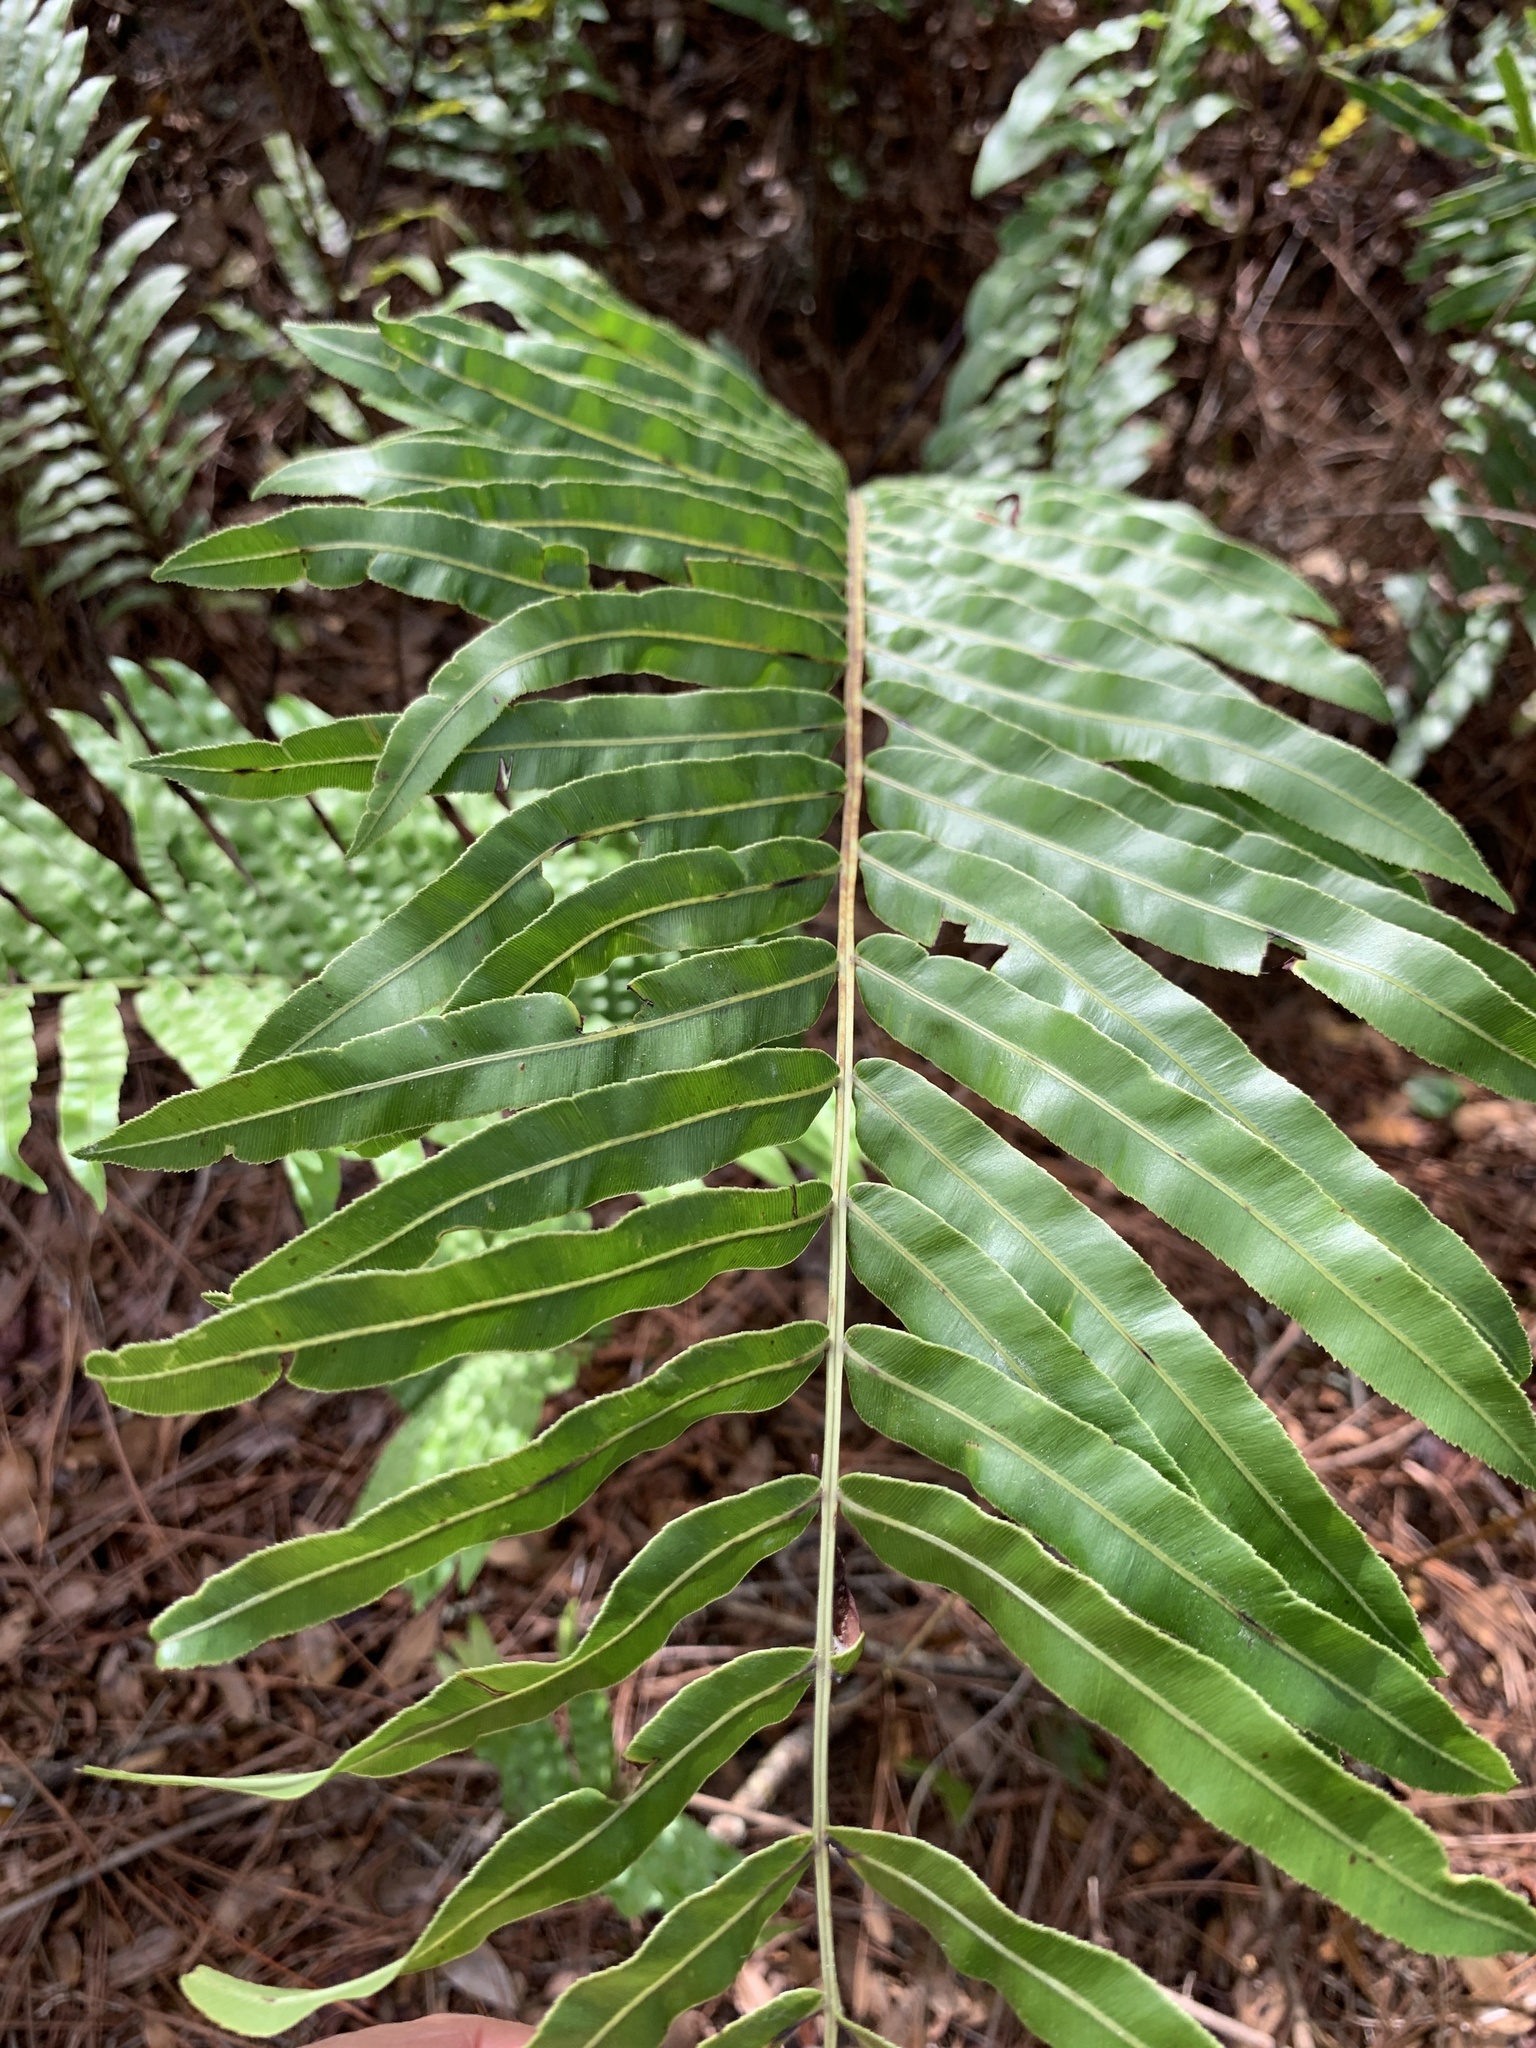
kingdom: Plantae
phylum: Tracheophyta
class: Polypodiopsida
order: Polypodiales
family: Blechnaceae
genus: Telmatoblechnum
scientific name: Telmatoblechnum serrulatum
